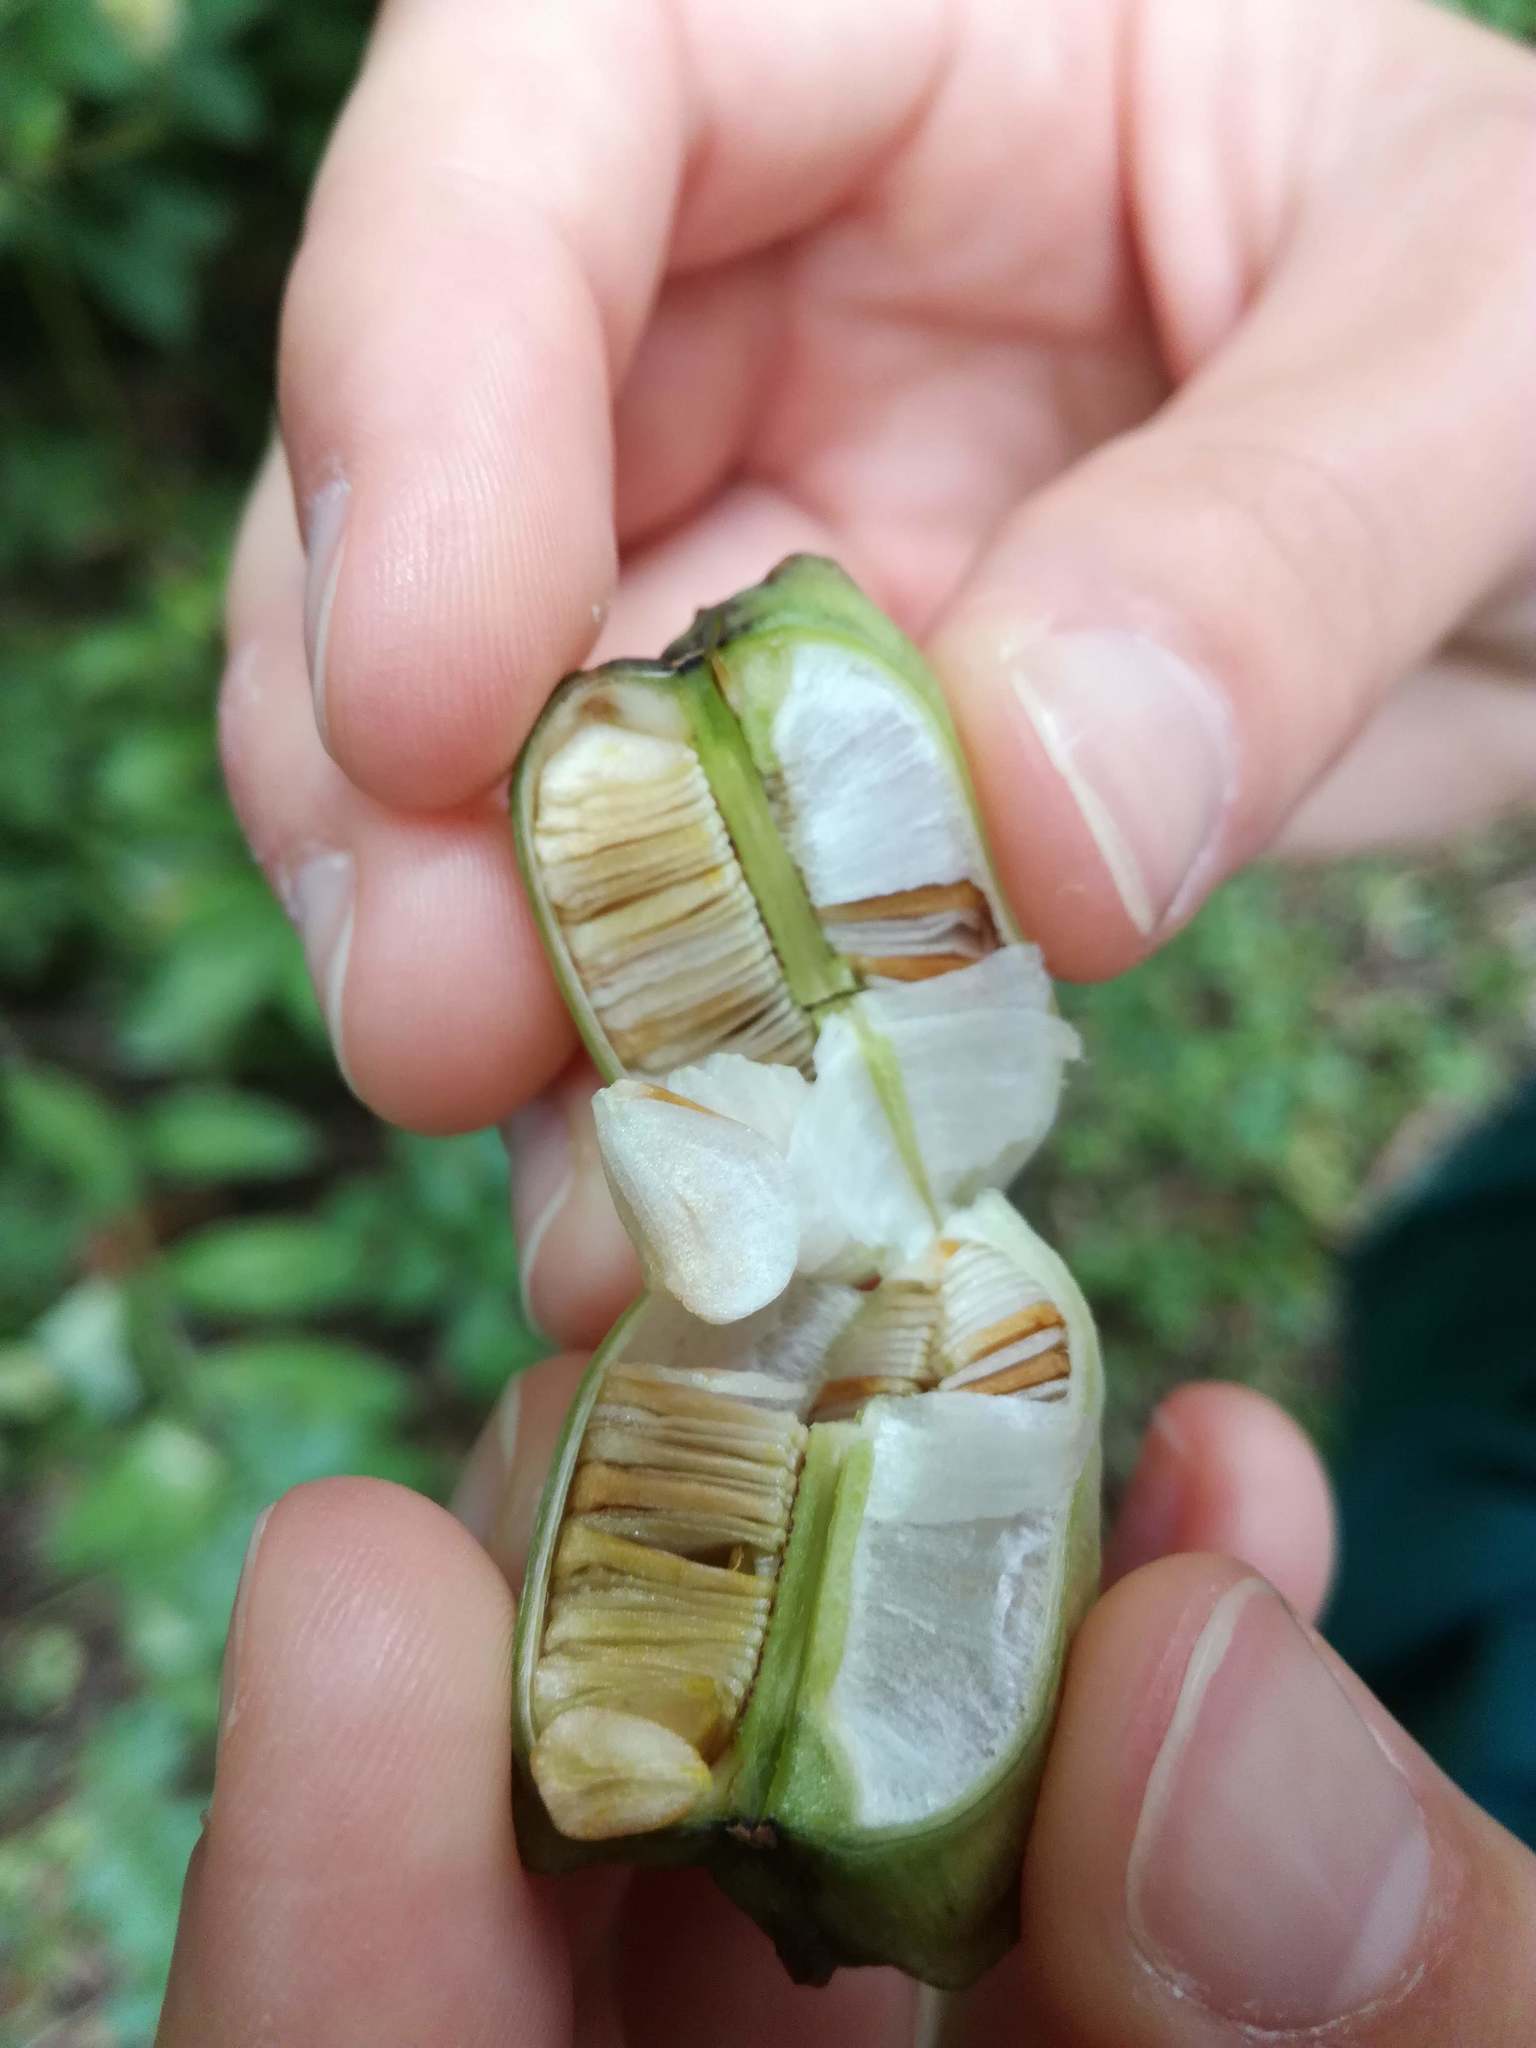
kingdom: Plantae
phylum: Tracheophyta
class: Liliopsida
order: Liliales
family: Liliaceae
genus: Lilium
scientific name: Lilium martagon
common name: Martagon lily
